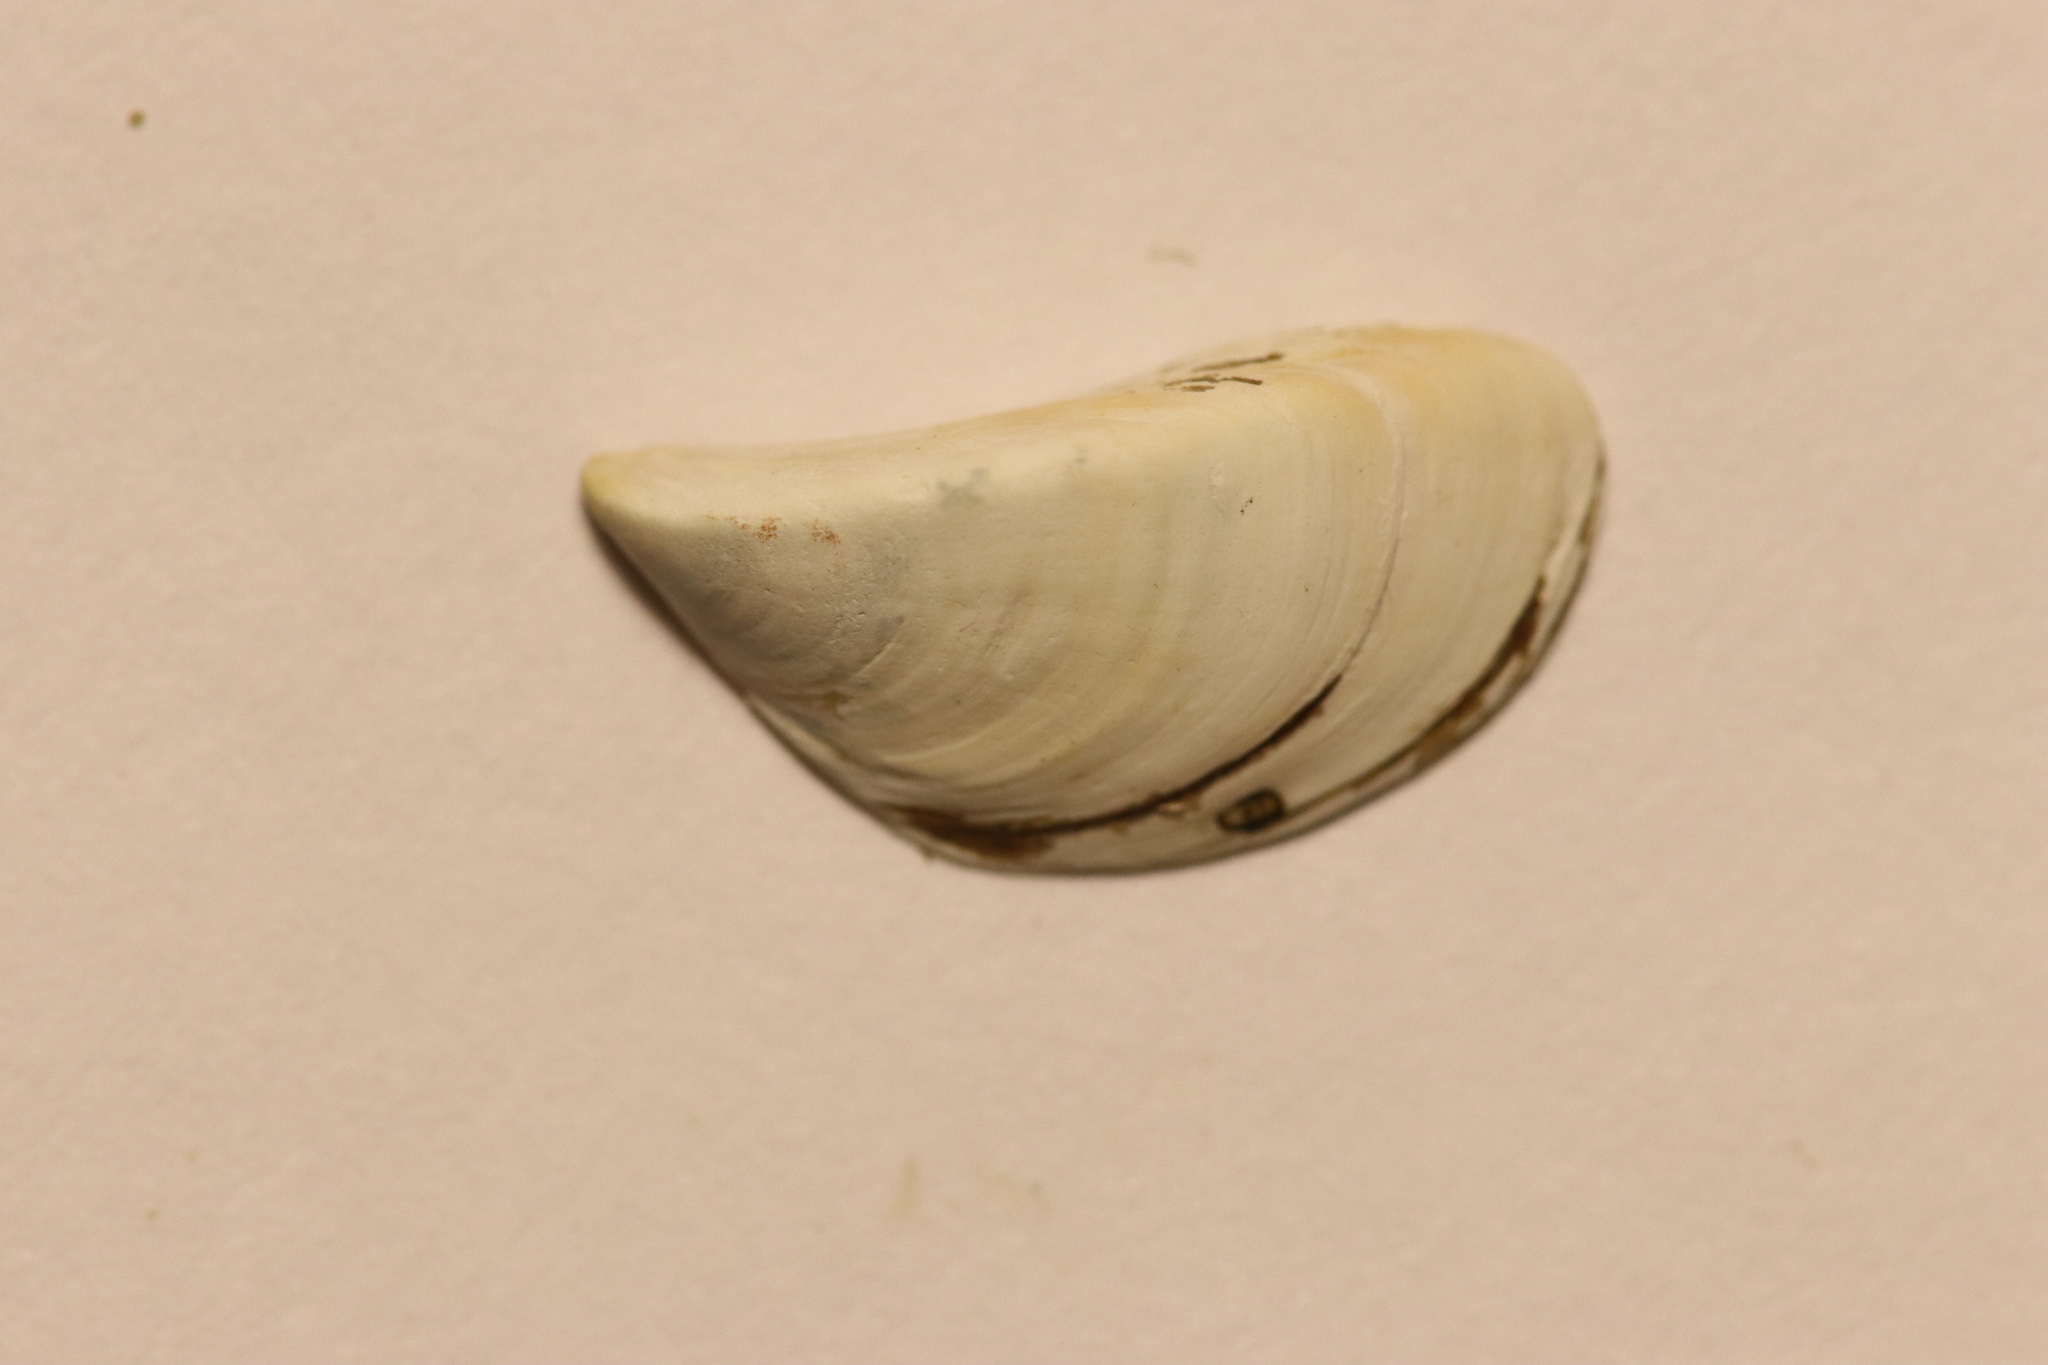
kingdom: Animalia
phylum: Mollusca
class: Bivalvia
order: Myida
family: Dreissenidae
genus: Dreissena
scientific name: Dreissena polymorpha
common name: Zebra mussel
